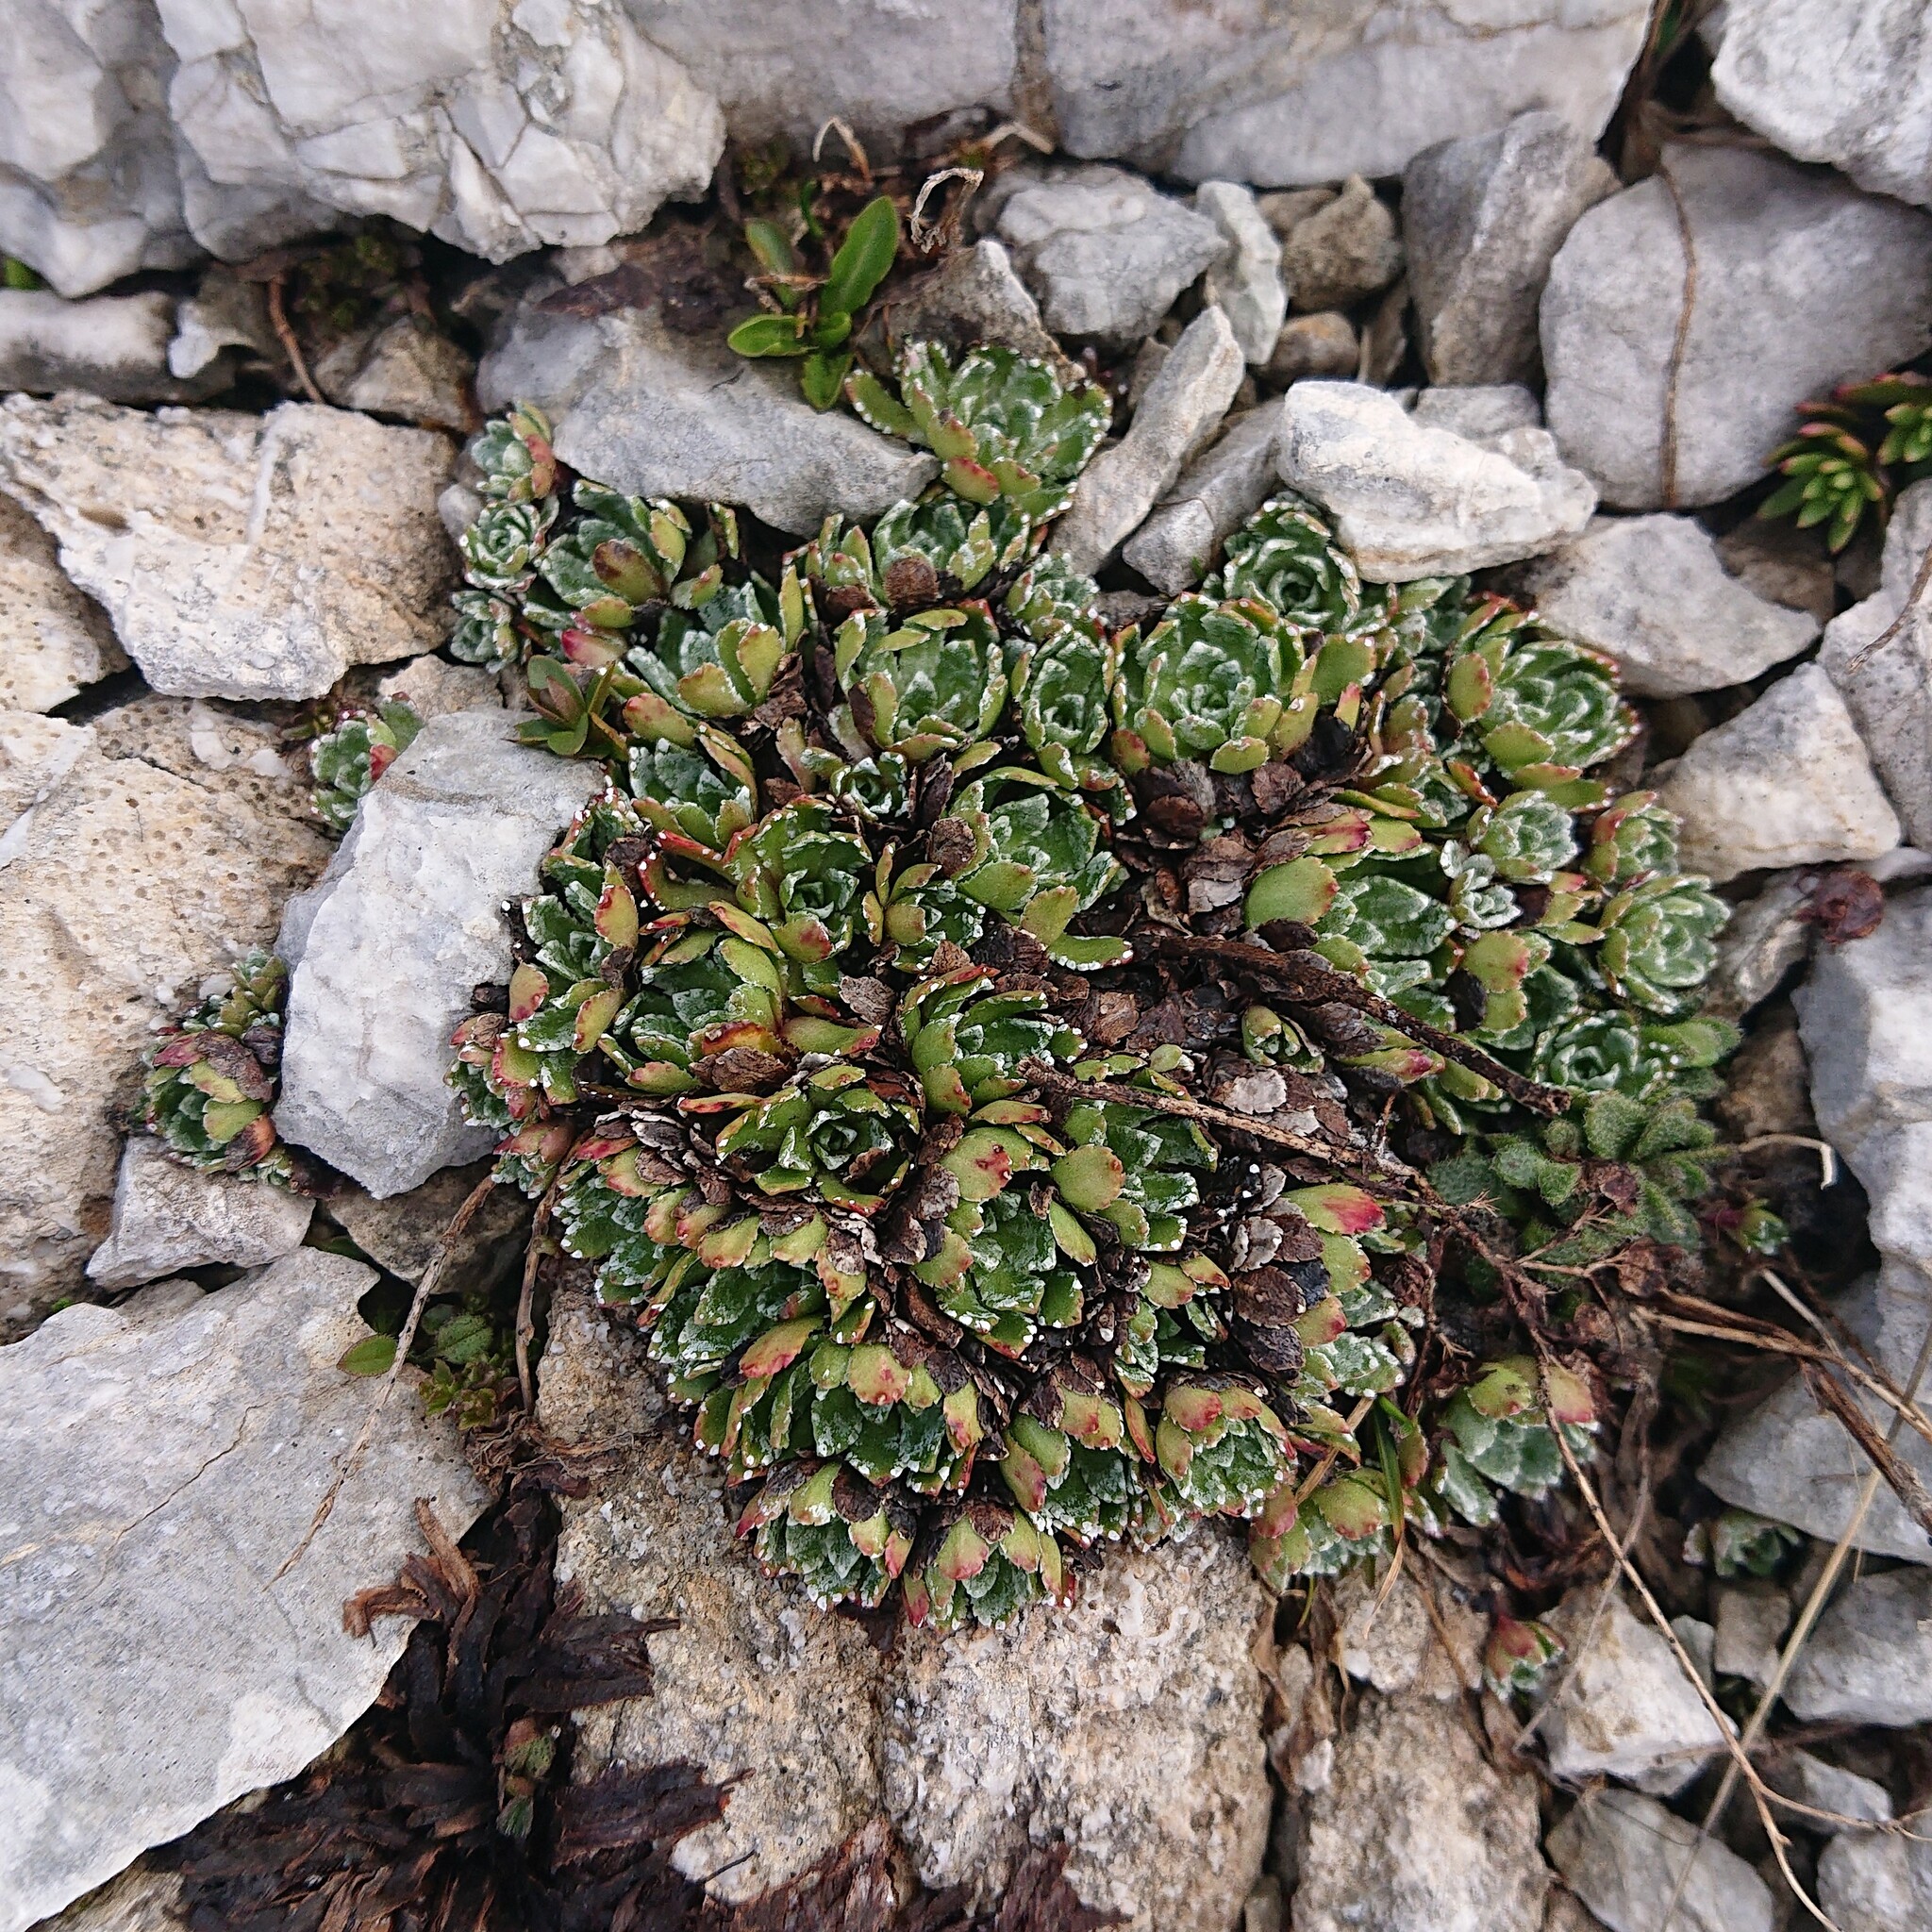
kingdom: Plantae
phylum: Tracheophyta
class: Magnoliopsida
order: Saxifragales
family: Saxifragaceae
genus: Saxifraga
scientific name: Saxifraga paniculata
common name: Livelong saxifrage
